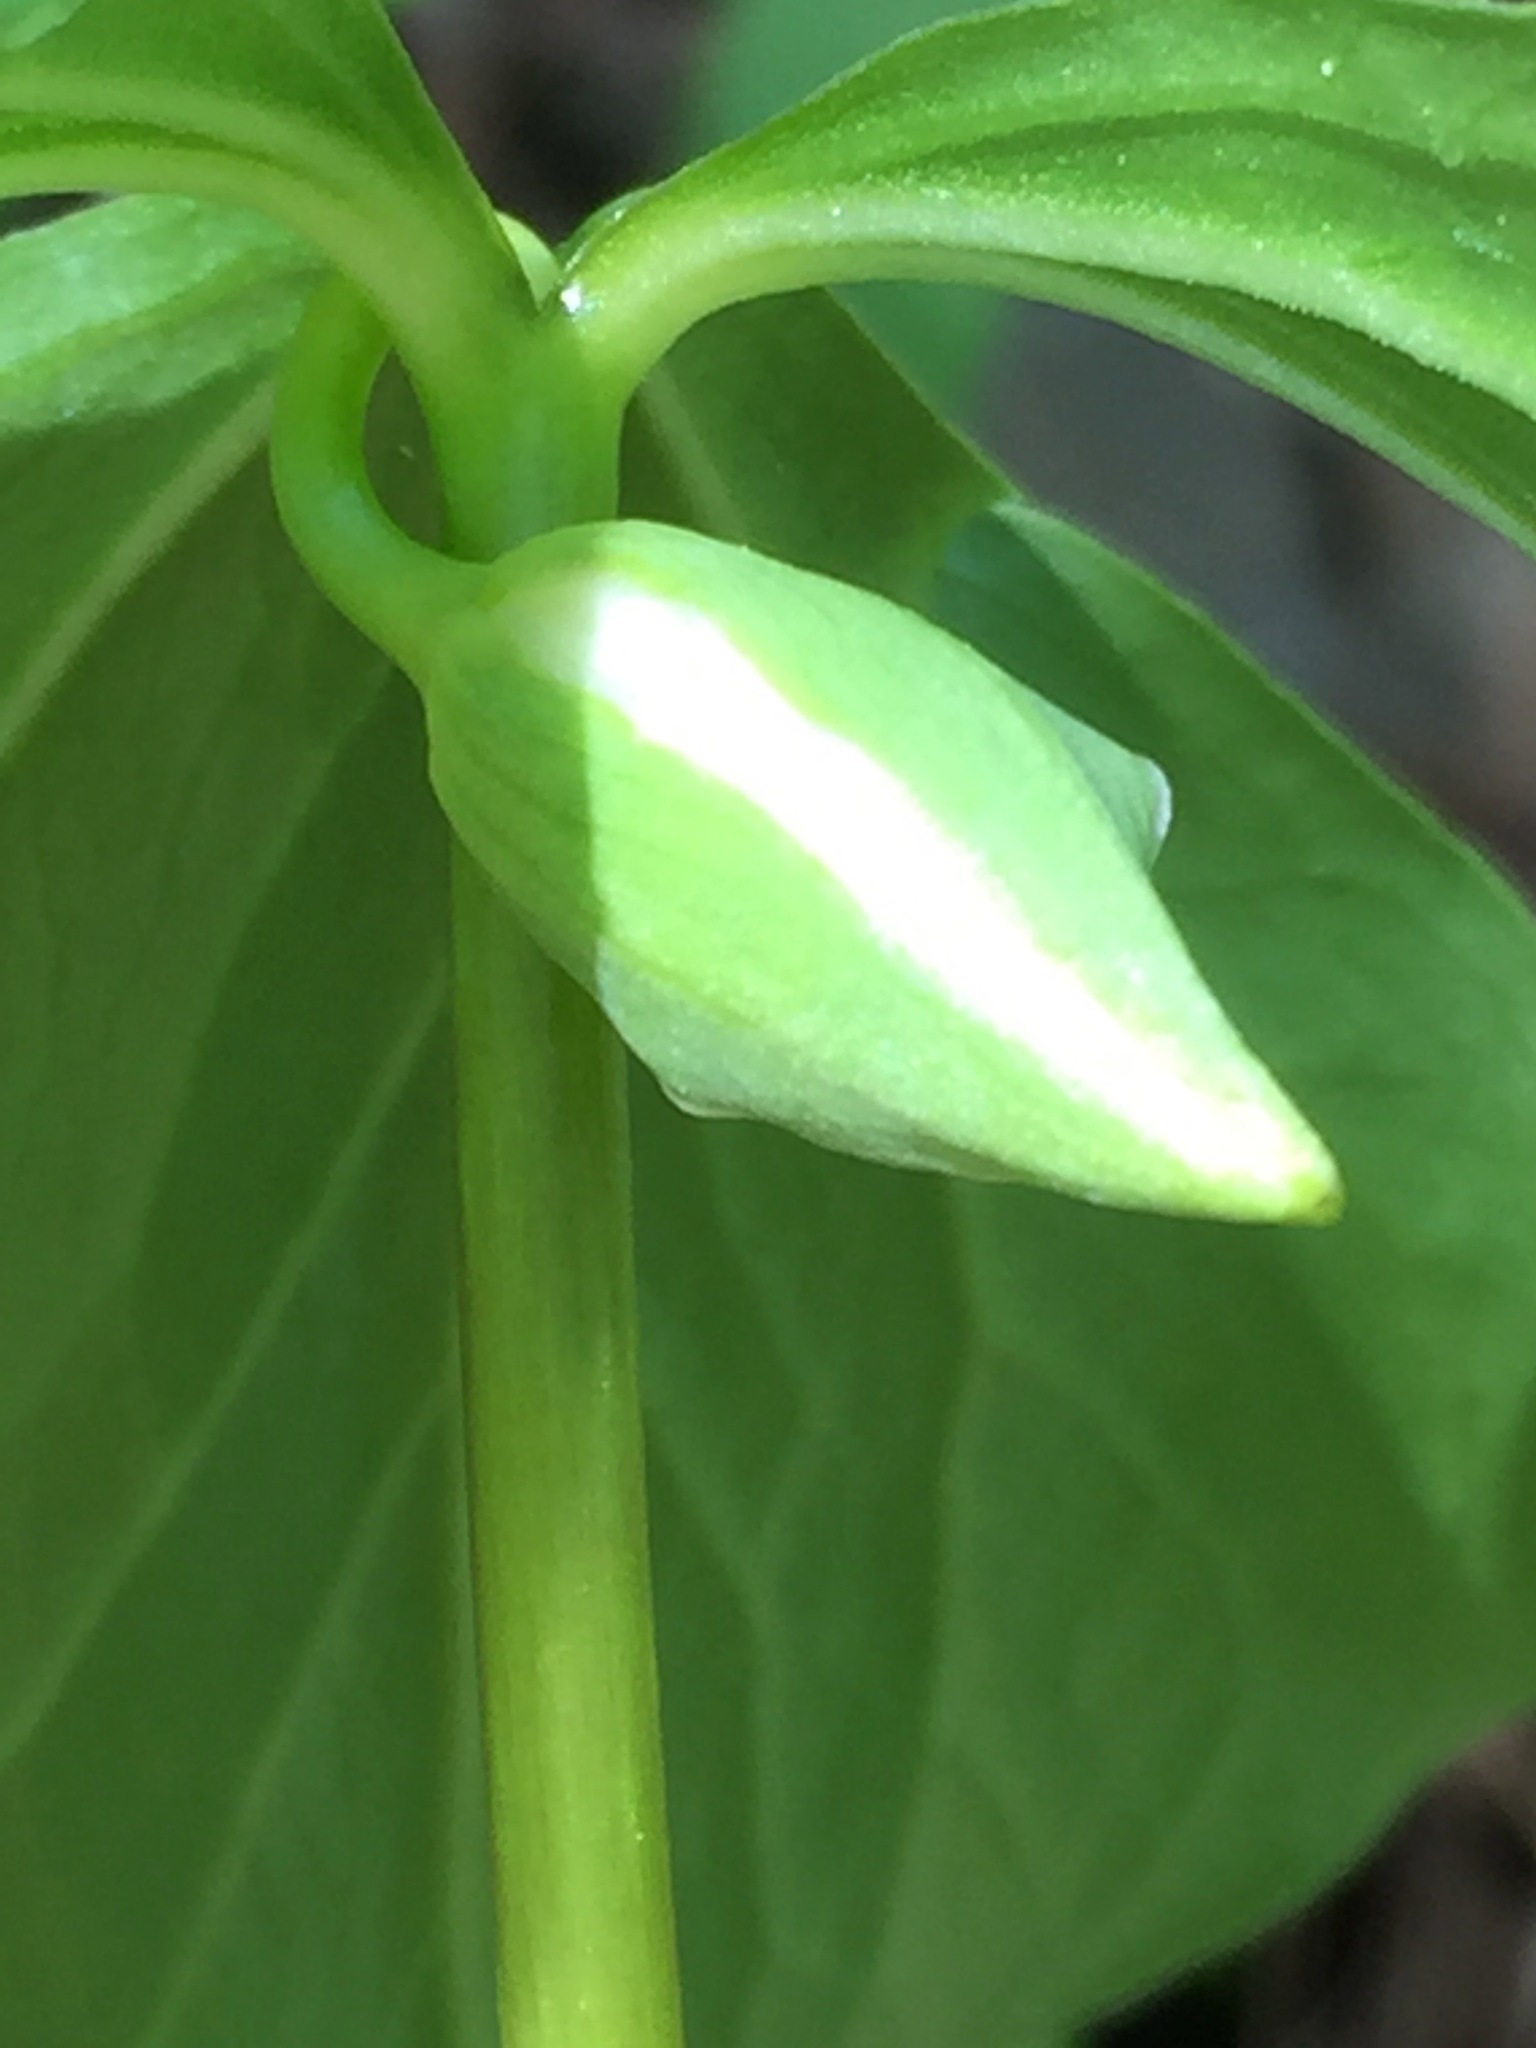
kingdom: Plantae
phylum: Tracheophyta
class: Liliopsida
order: Liliales
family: Melanthiaceae
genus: Trillium
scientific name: Trillium cernuum
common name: Nodding trillium
